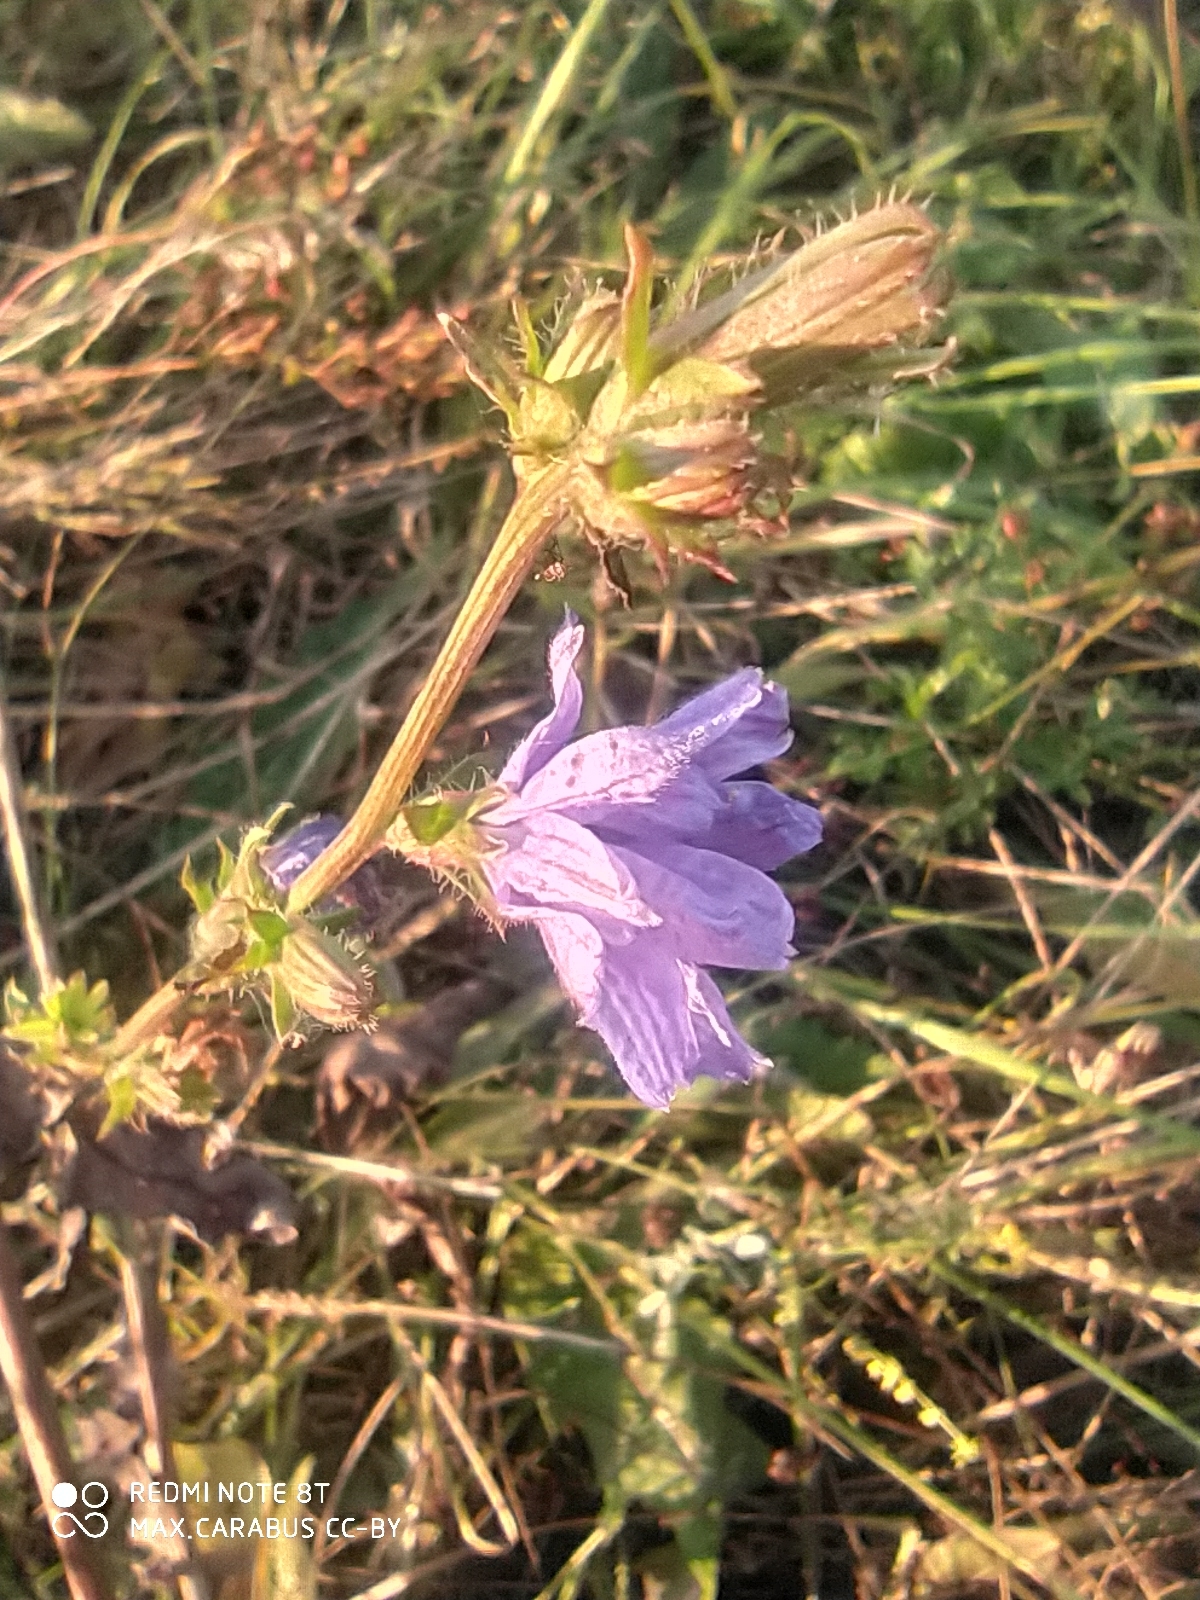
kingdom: Plantae
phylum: Tracheophyta
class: Magnoliopsida
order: Asterales
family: Asteraceae
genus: Cichorium
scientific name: Cichorium intybus
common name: Chicory
